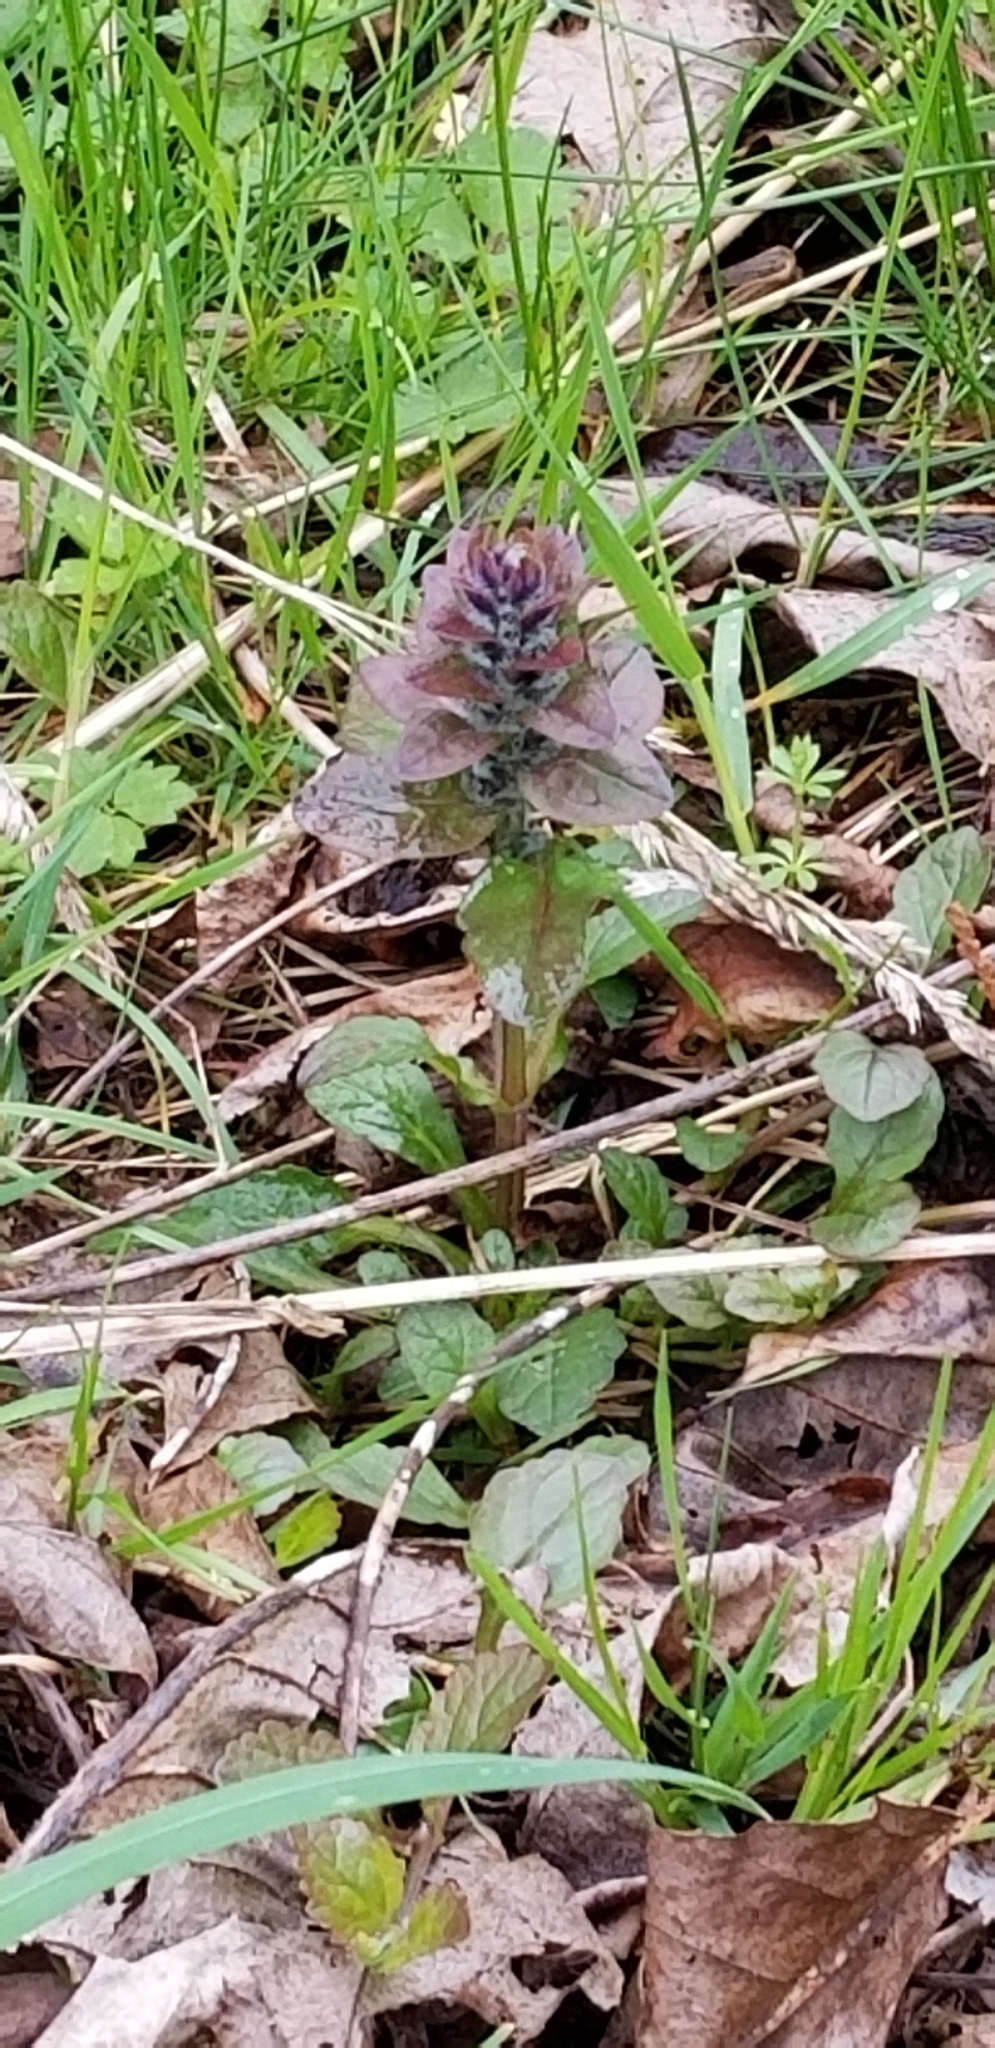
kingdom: Plantae
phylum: Tracheophyta
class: Magnoliopsida
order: Lamiales
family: Lamiaceae
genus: Ajuga
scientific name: Ajuga reptans
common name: Bugle
